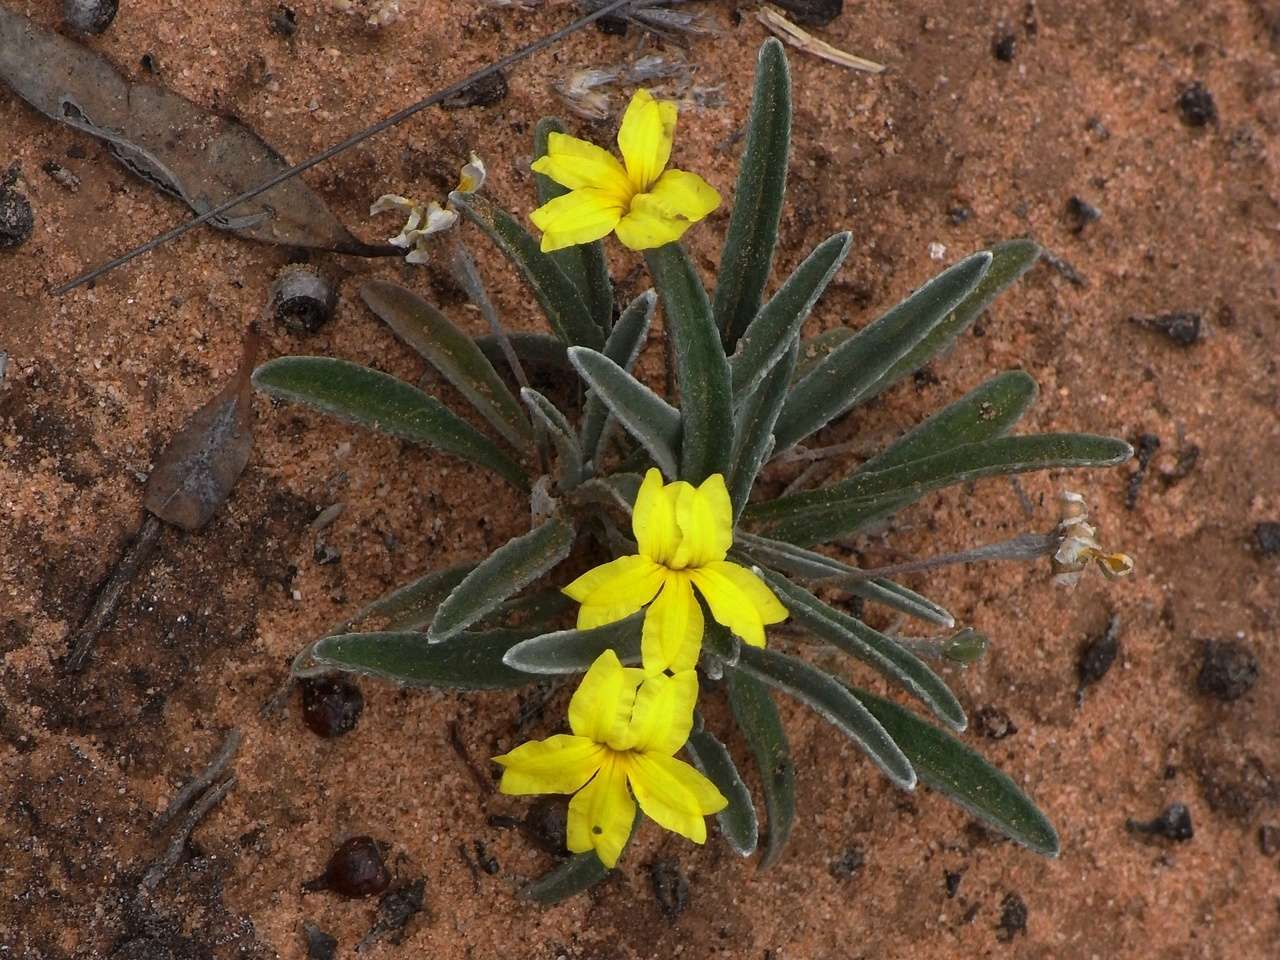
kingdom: Plantae
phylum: Tracheophyta
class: Magnoliopsida
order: Asterales
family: Goodeniaceae
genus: Goodenia
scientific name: Goodenia willisiana
